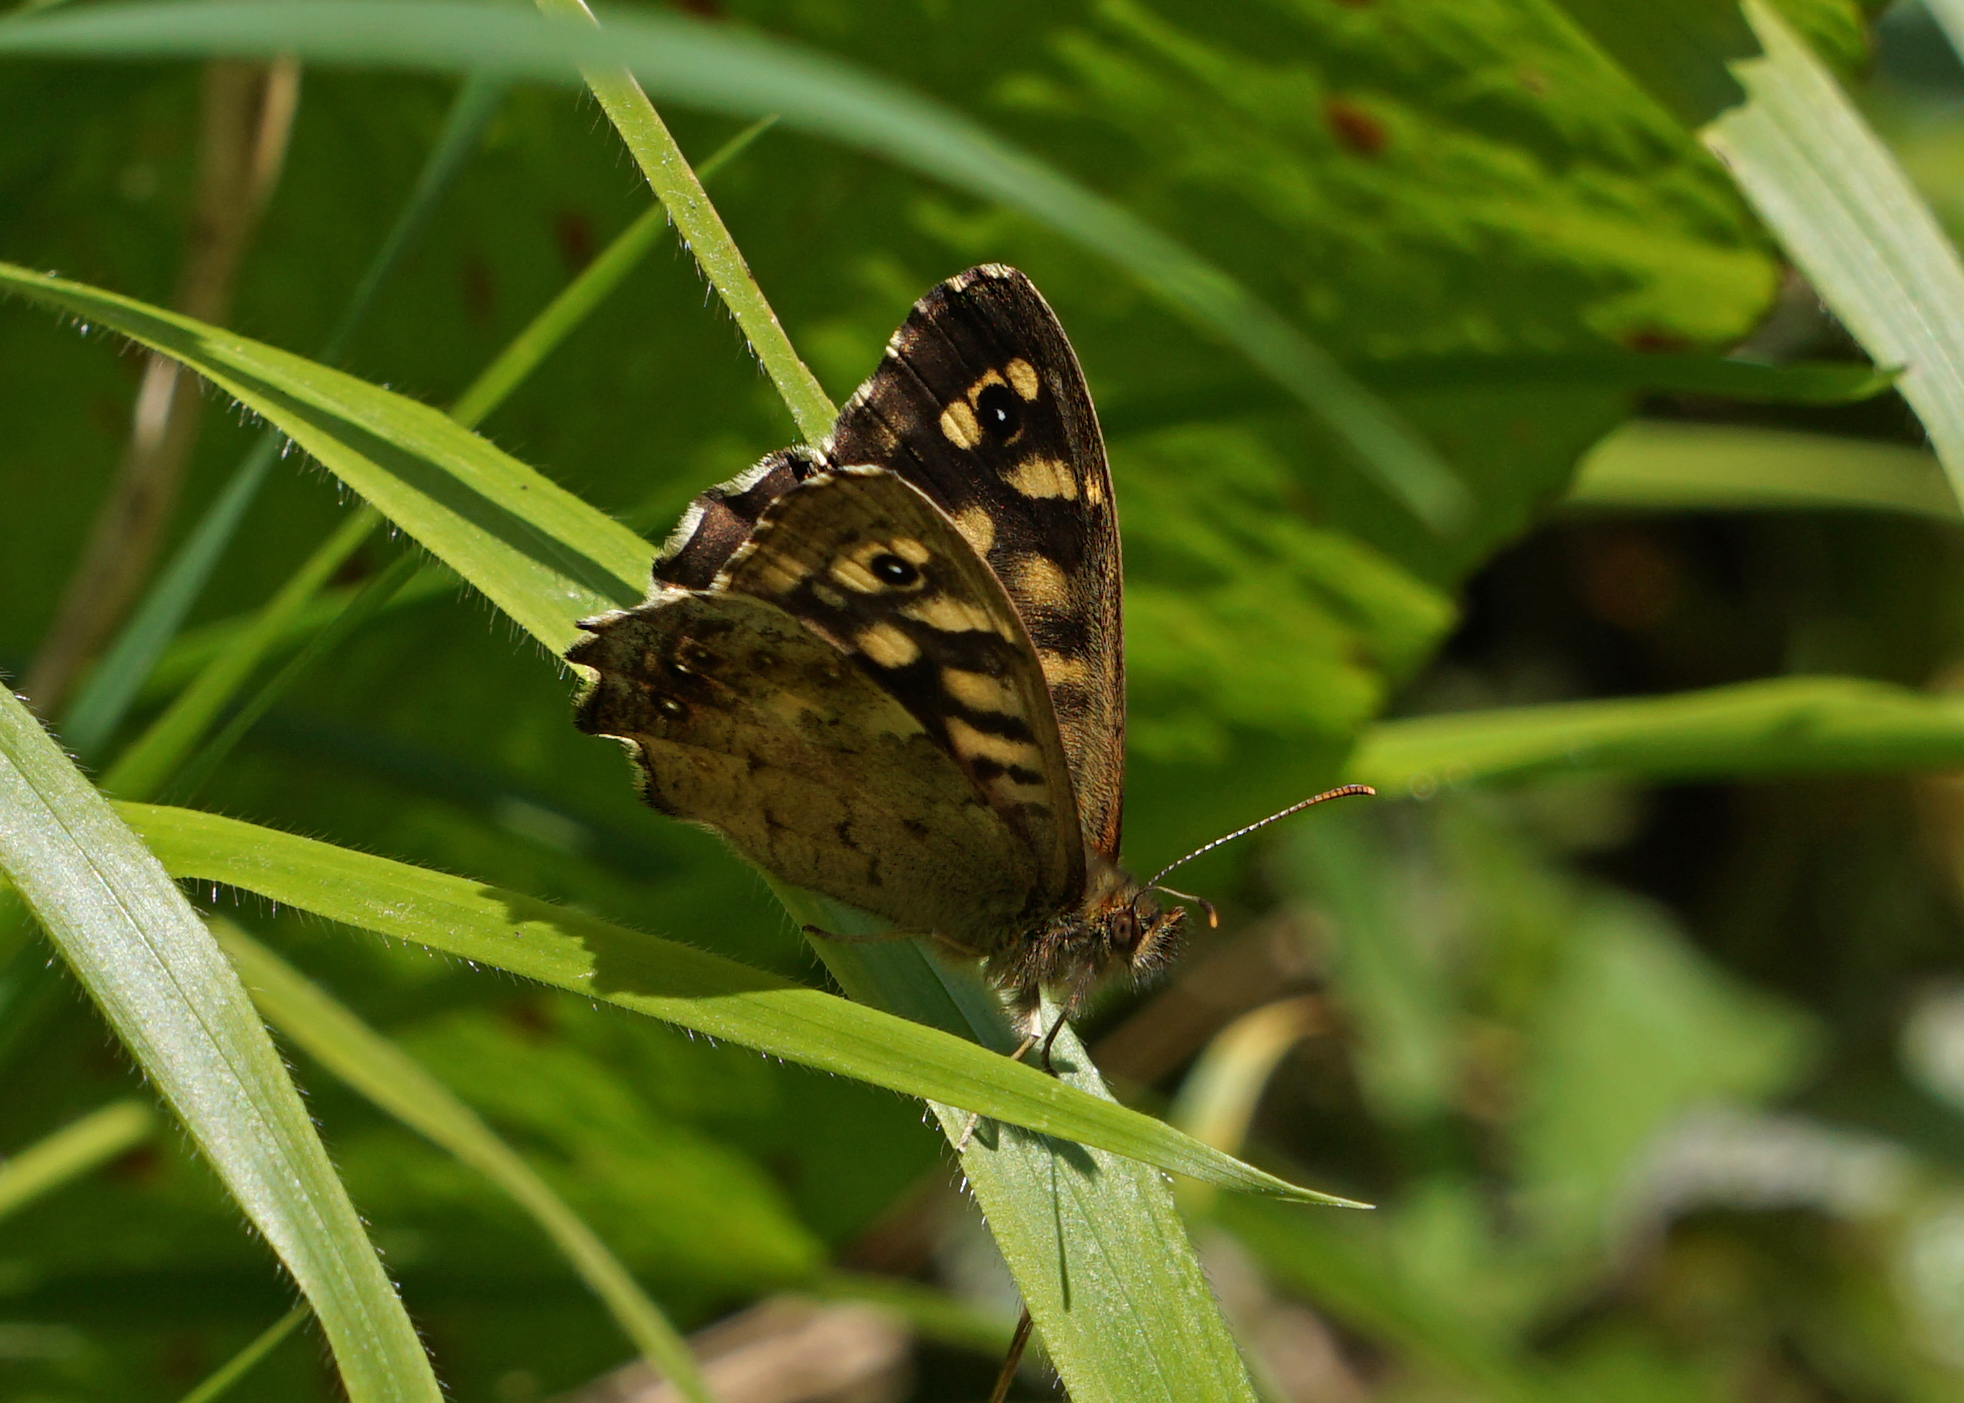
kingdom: Animalia
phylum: Arthropoda
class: Insecta
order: Lepidoptera
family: Nymphalidae
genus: Pararge
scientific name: Pararge aegeria
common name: Speckled wood
